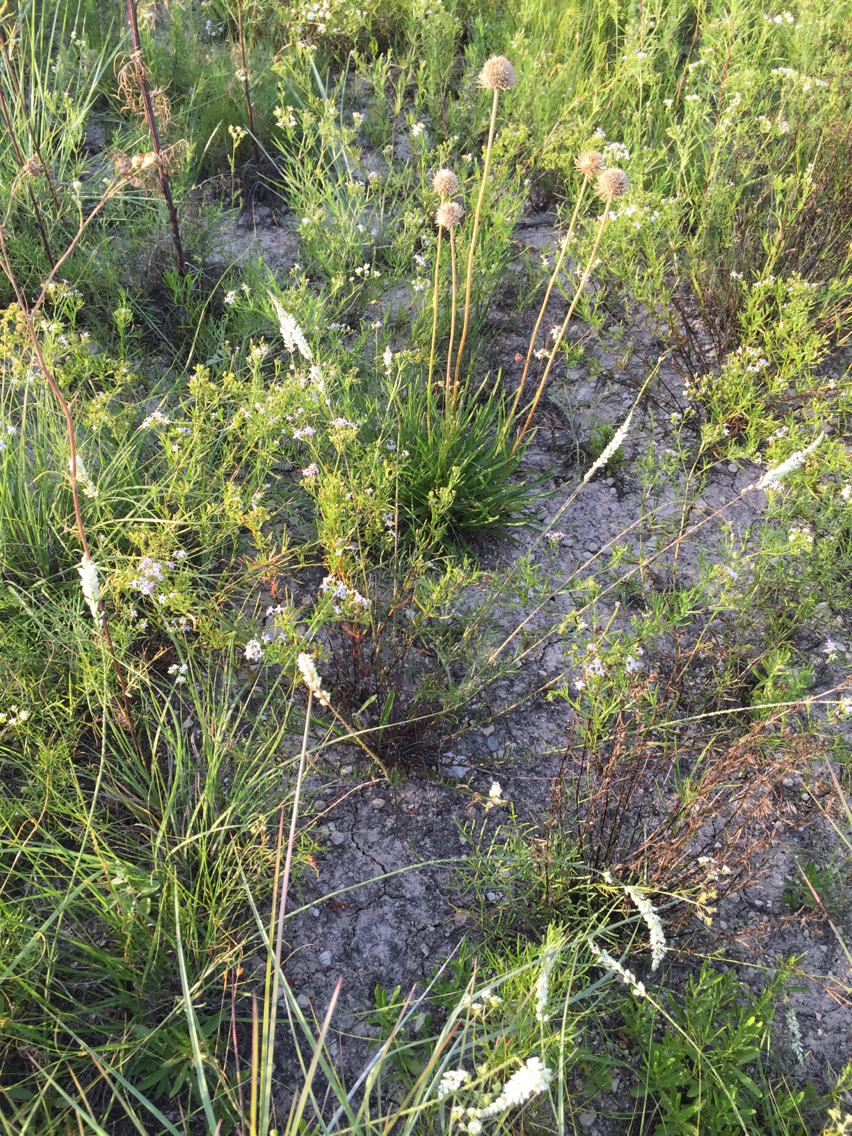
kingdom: Plantae
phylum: Tracheophyta
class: Magnoliopsida
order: Fabales
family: Polygalaceae
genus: Polygala
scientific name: Polygala alba
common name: White milkwort
